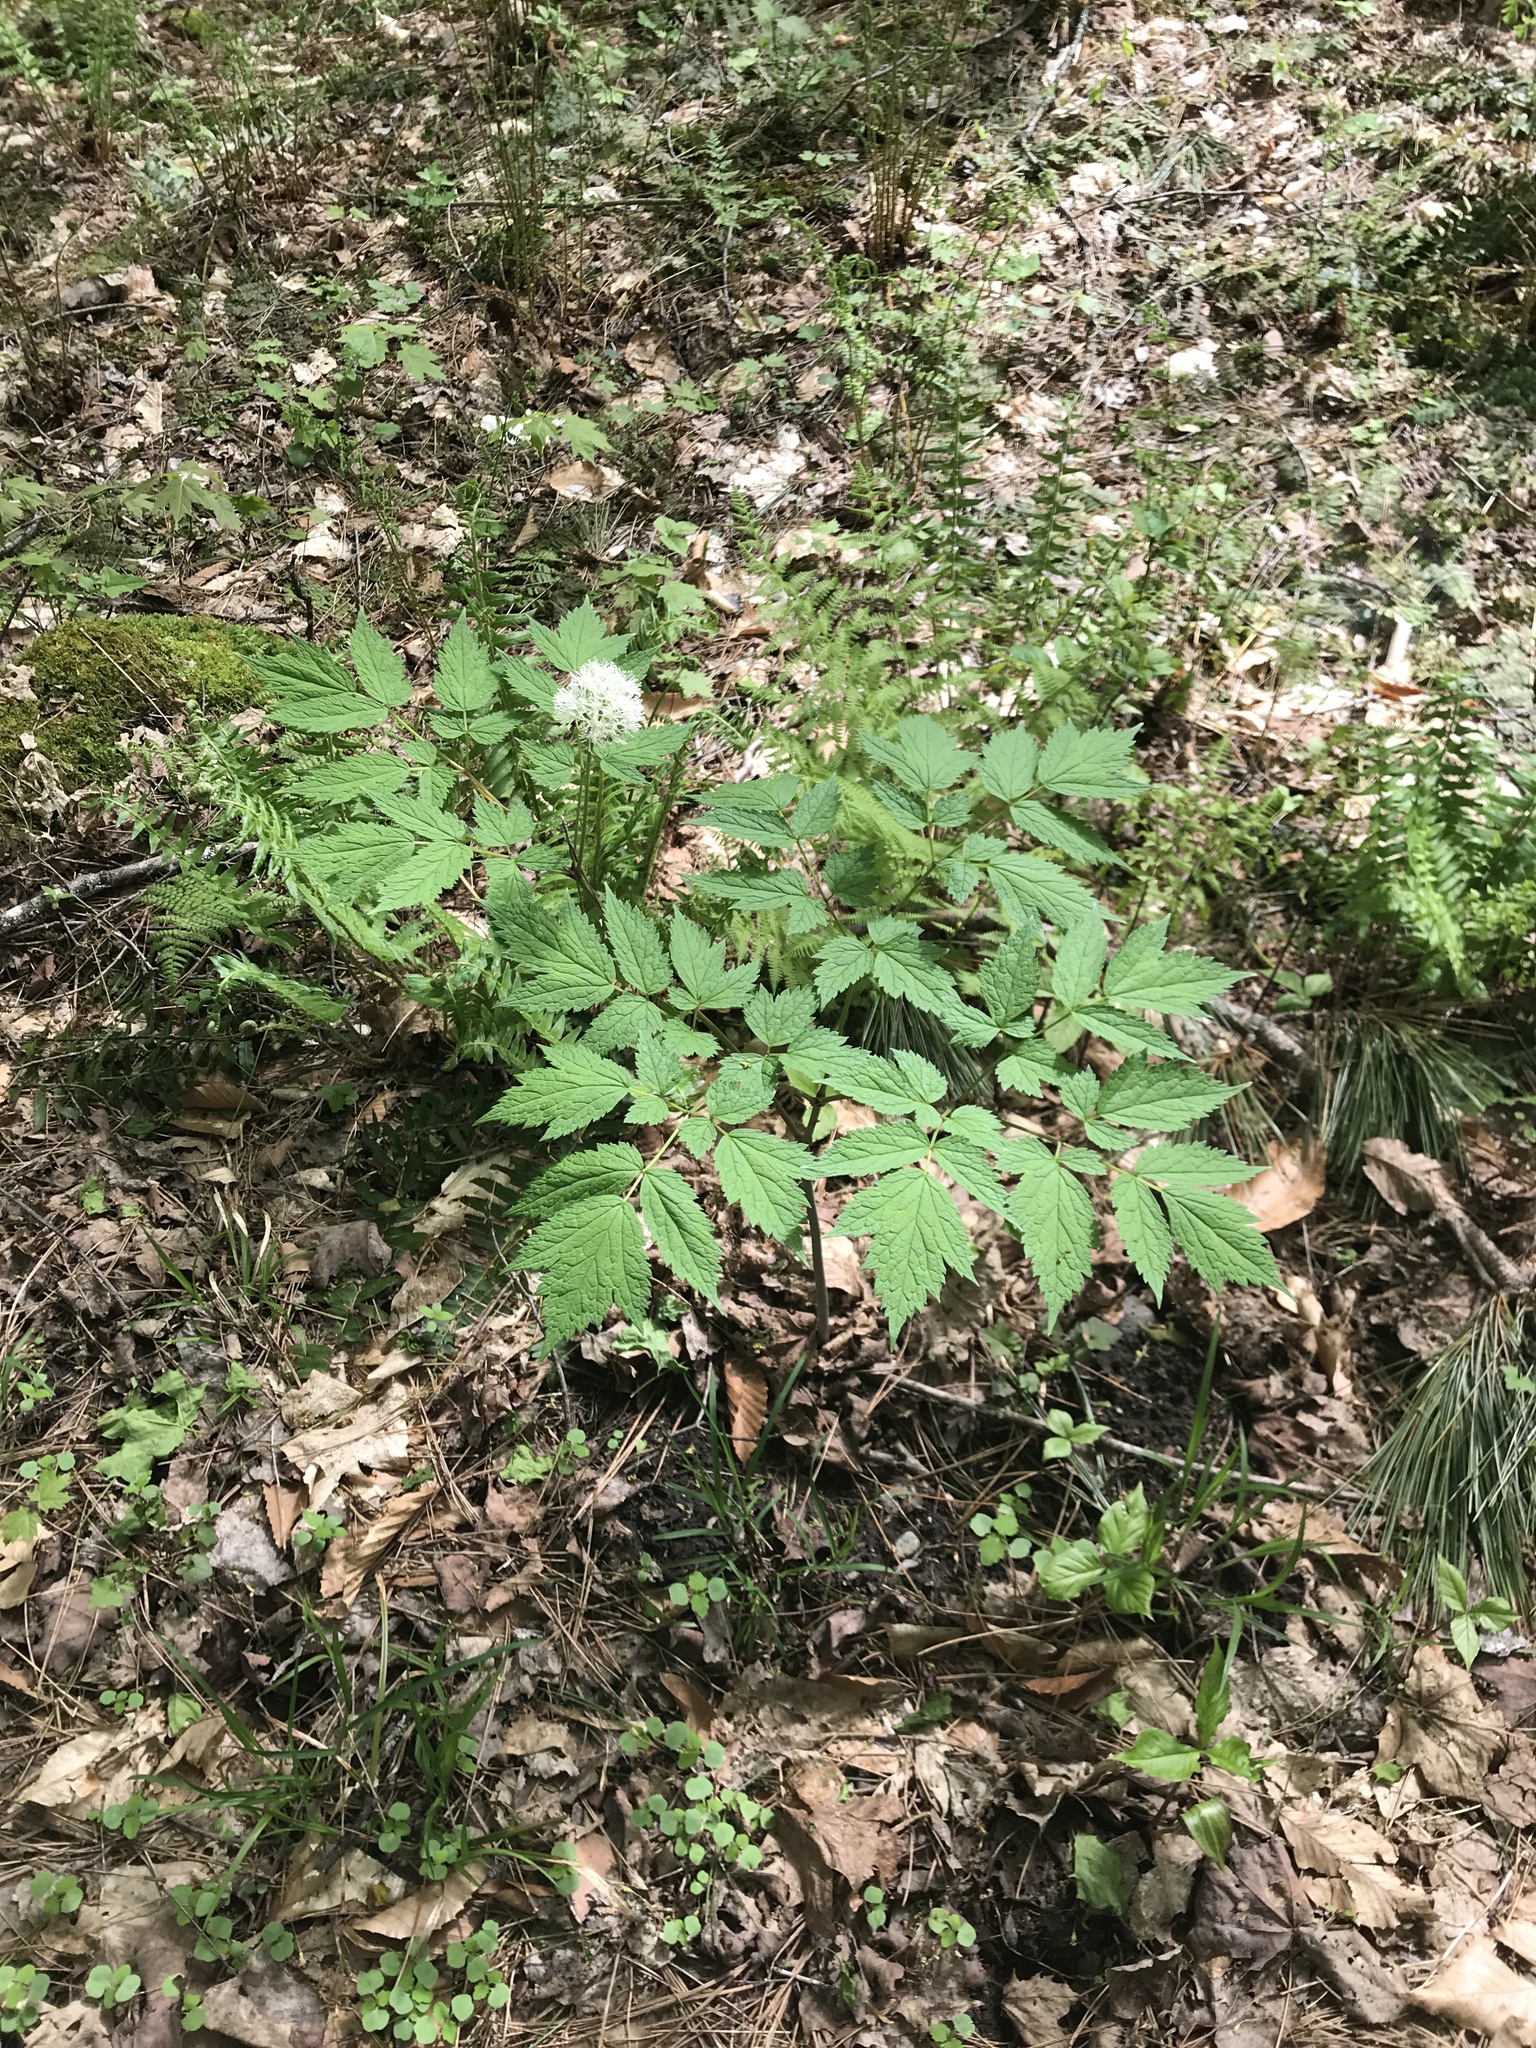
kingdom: Plantae
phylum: Tracheophyta
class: Magnoliopsida
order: Ranunculales
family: Ranunculaceae
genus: Actaea
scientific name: Actaea rubra
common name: Red baneberry
